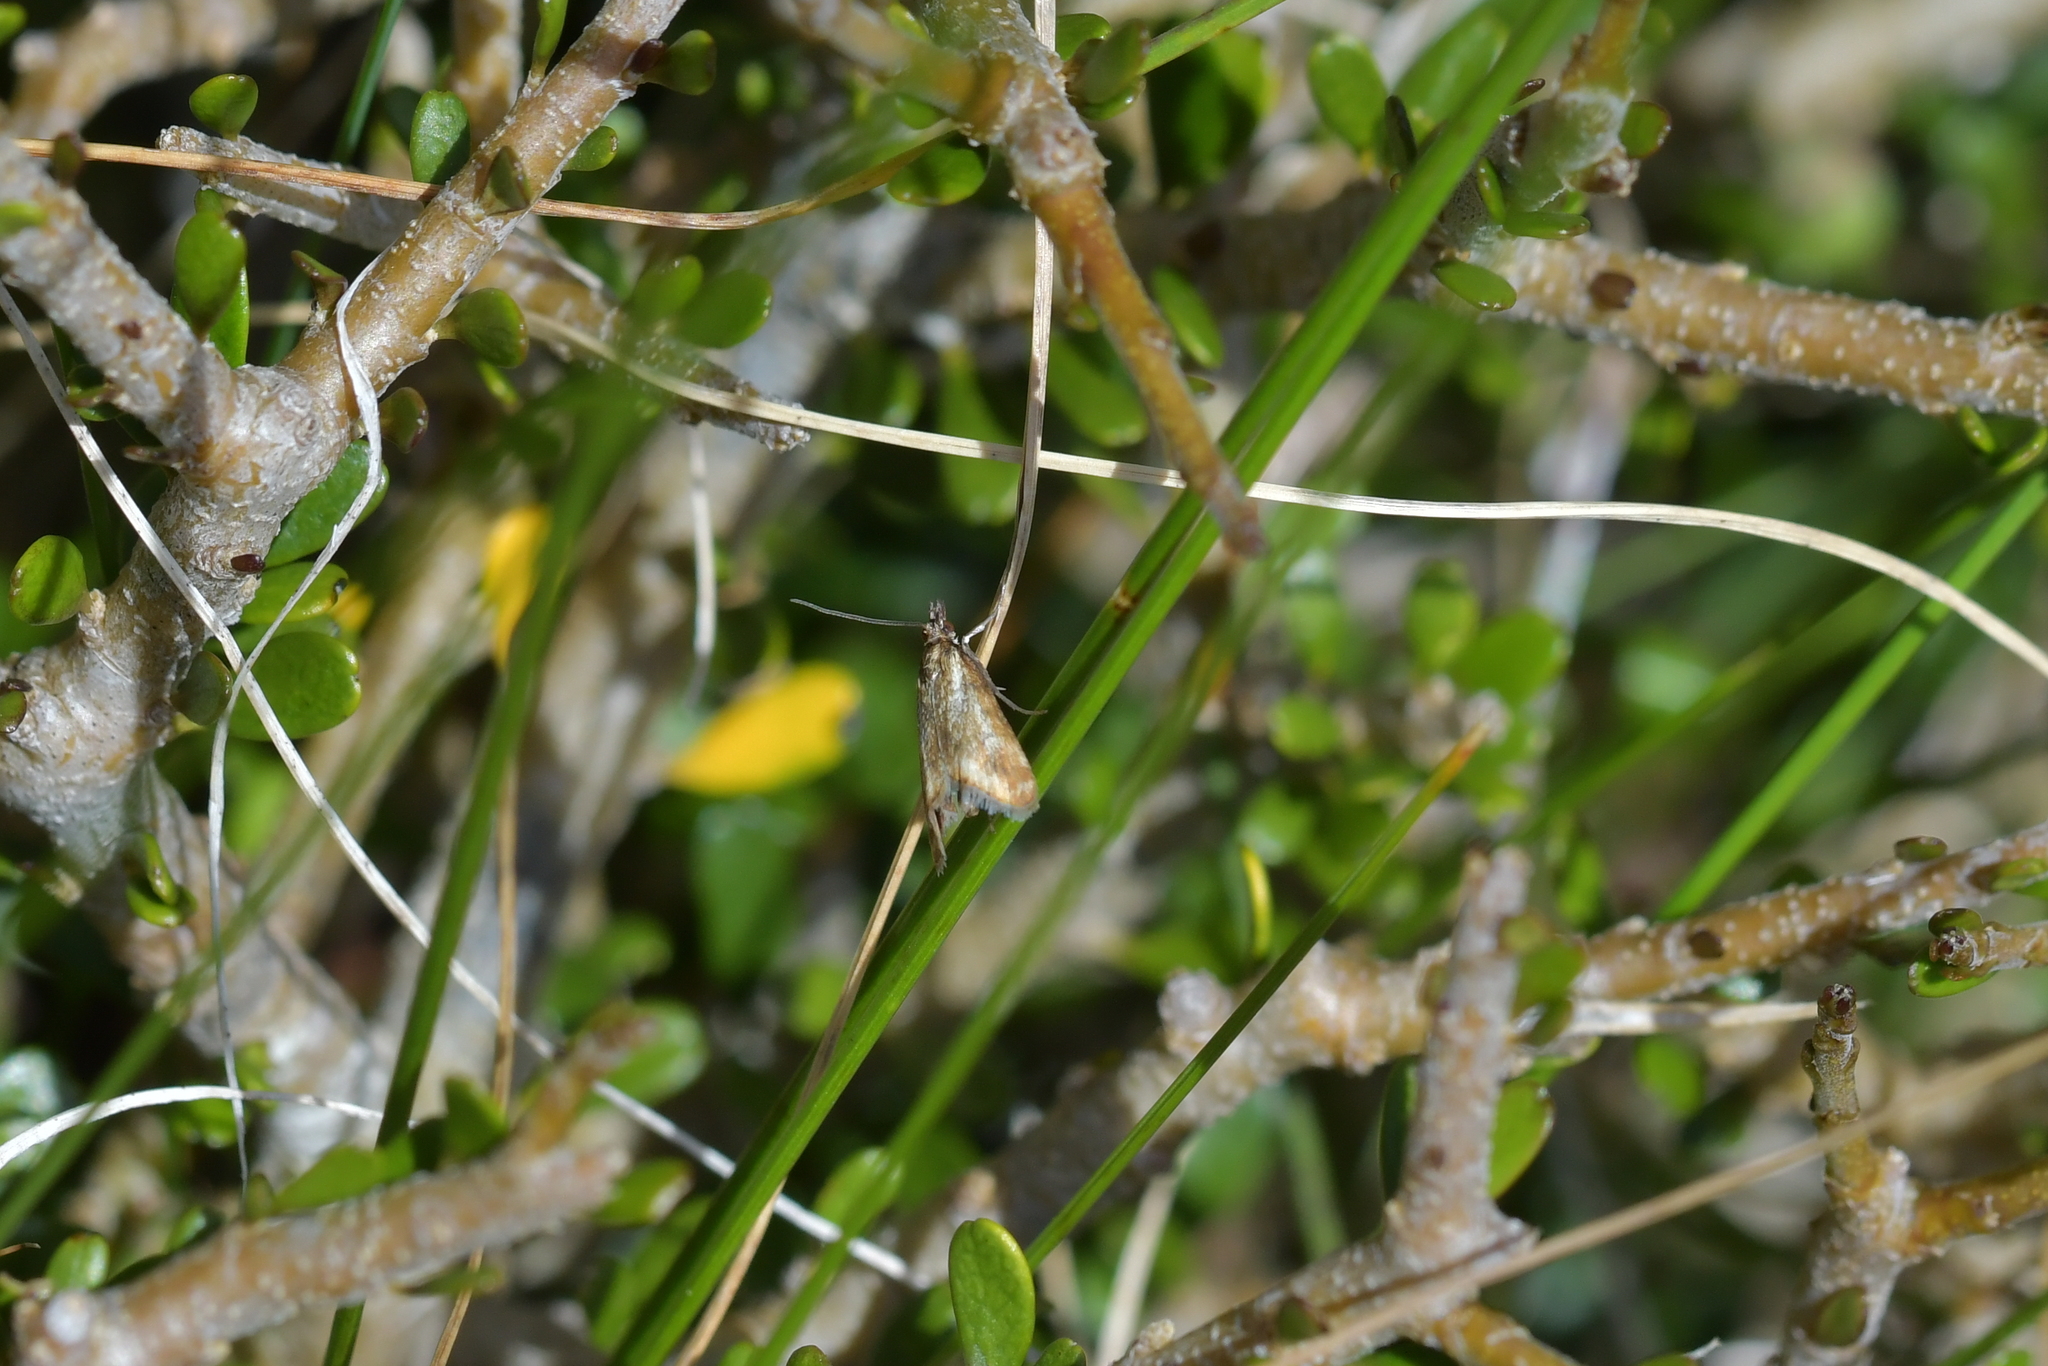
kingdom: Animalia
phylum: Arthropoda
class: Insecta
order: Lepidoptera
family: Crambidae
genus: Glaucocharis
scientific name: Glaucocharis helioctypa
